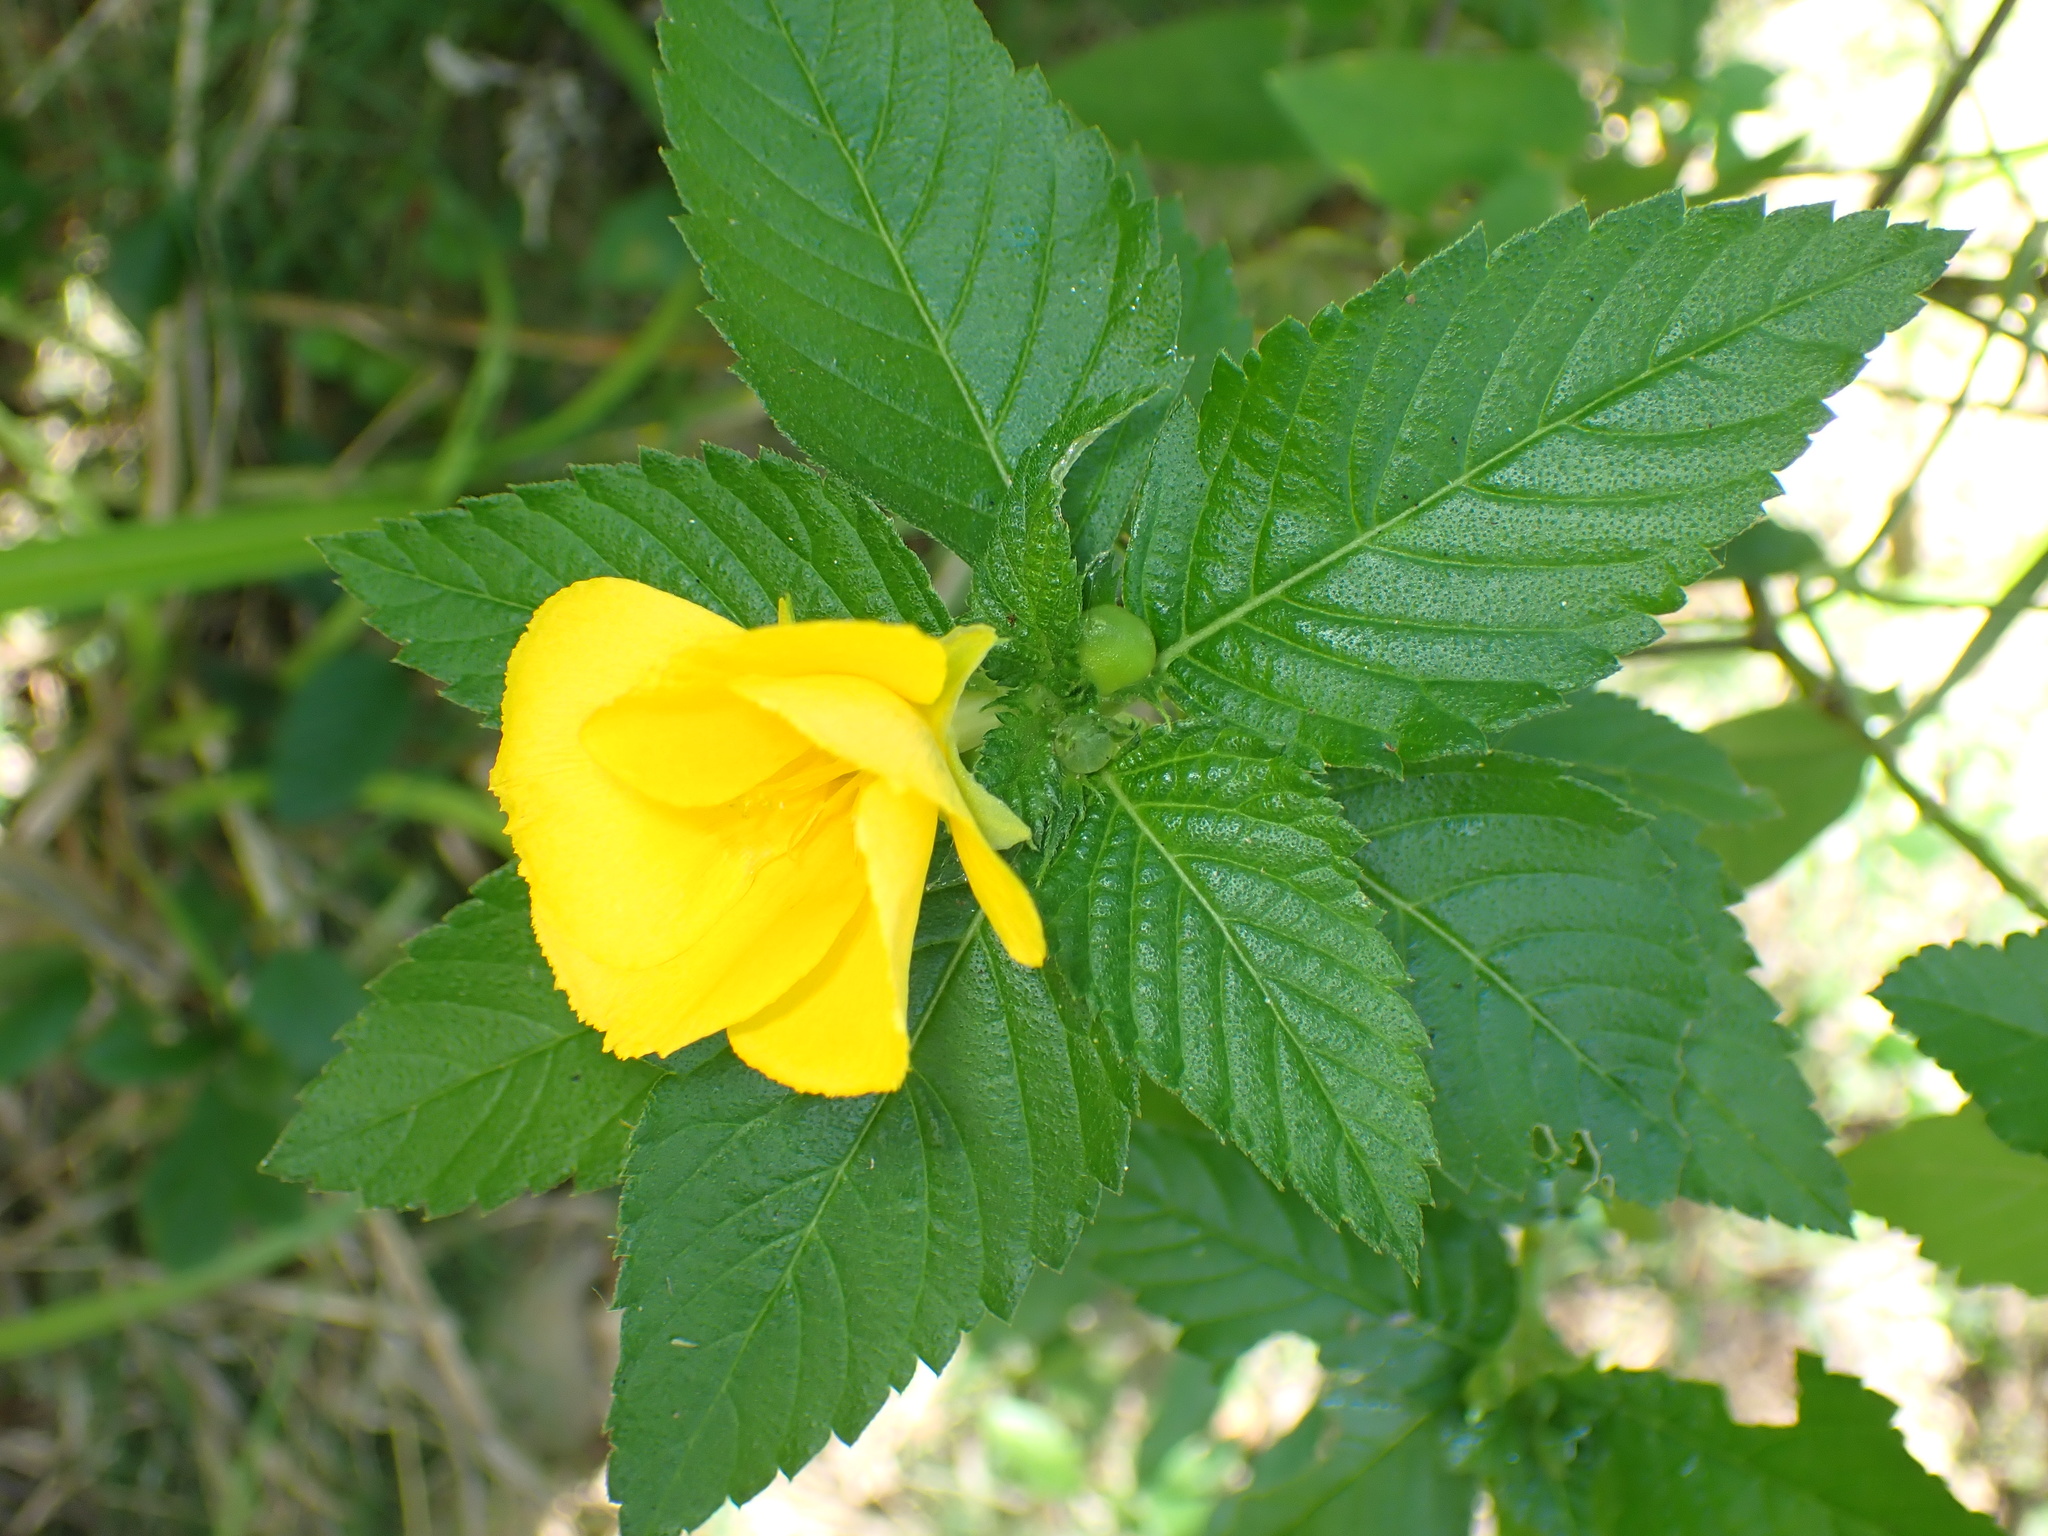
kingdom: Plantae
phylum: Tracheophyta
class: Magnoliopsida
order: Malpighiales
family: Turneraceae
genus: Turnera
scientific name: Turnera ulmifolia
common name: Ramgoat dashalong
